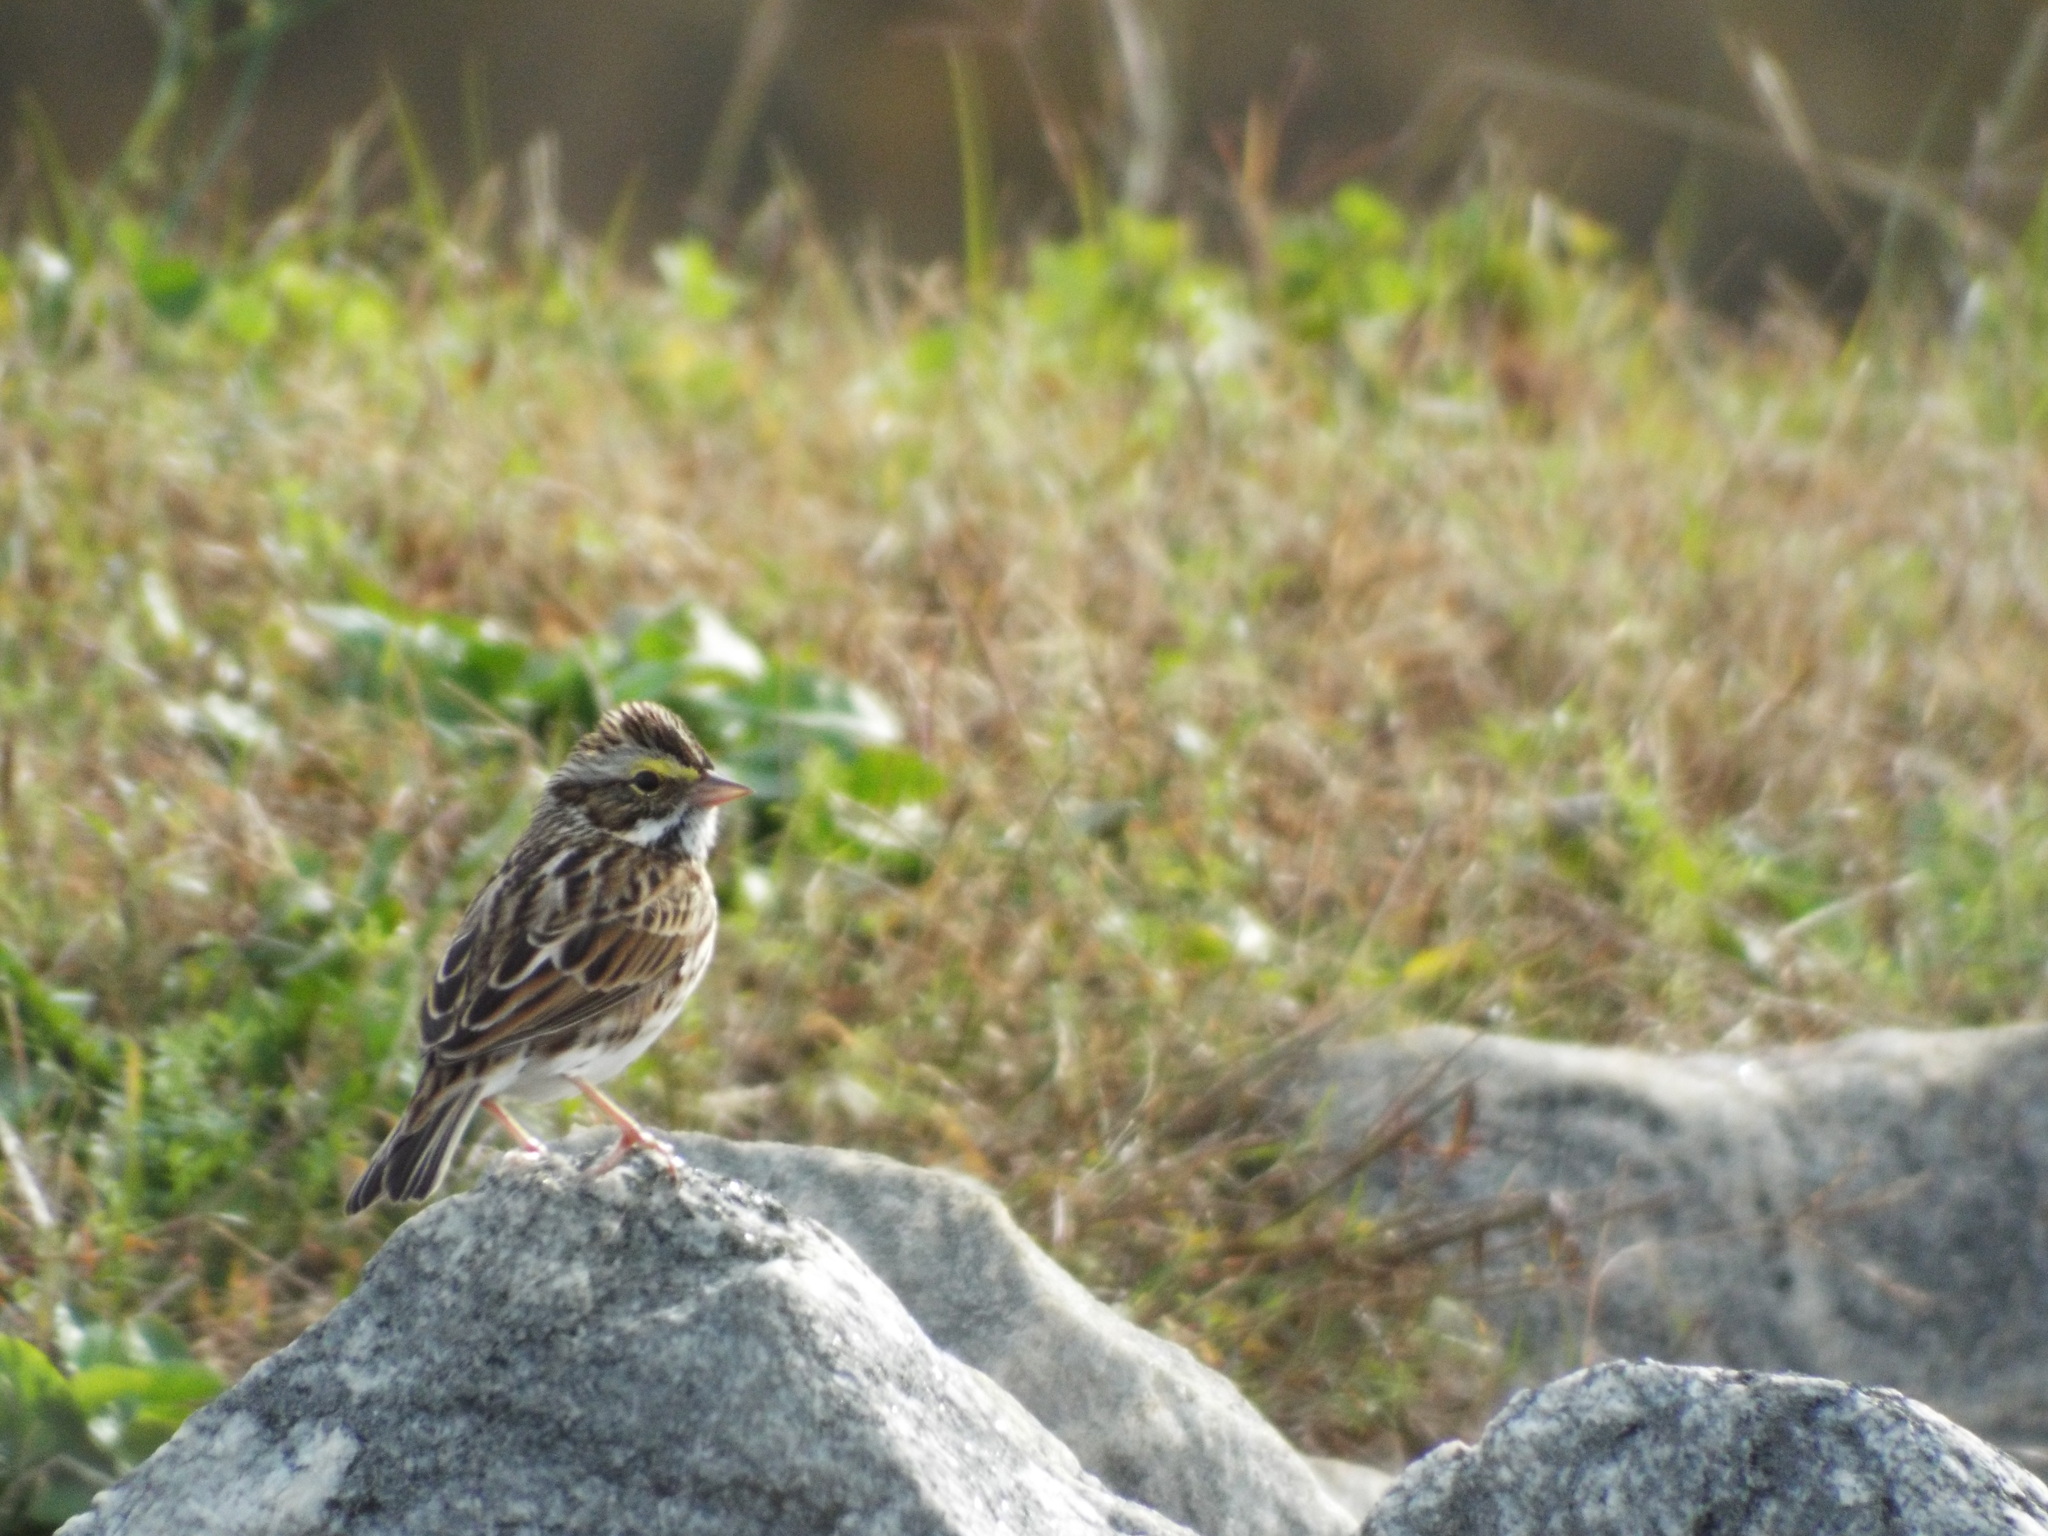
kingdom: Animalia
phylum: Chordata
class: Aves
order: Passeriformes
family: Passerellidae
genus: Passerculus
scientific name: Passerculus sandwichensis
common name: Savannah sparrow
